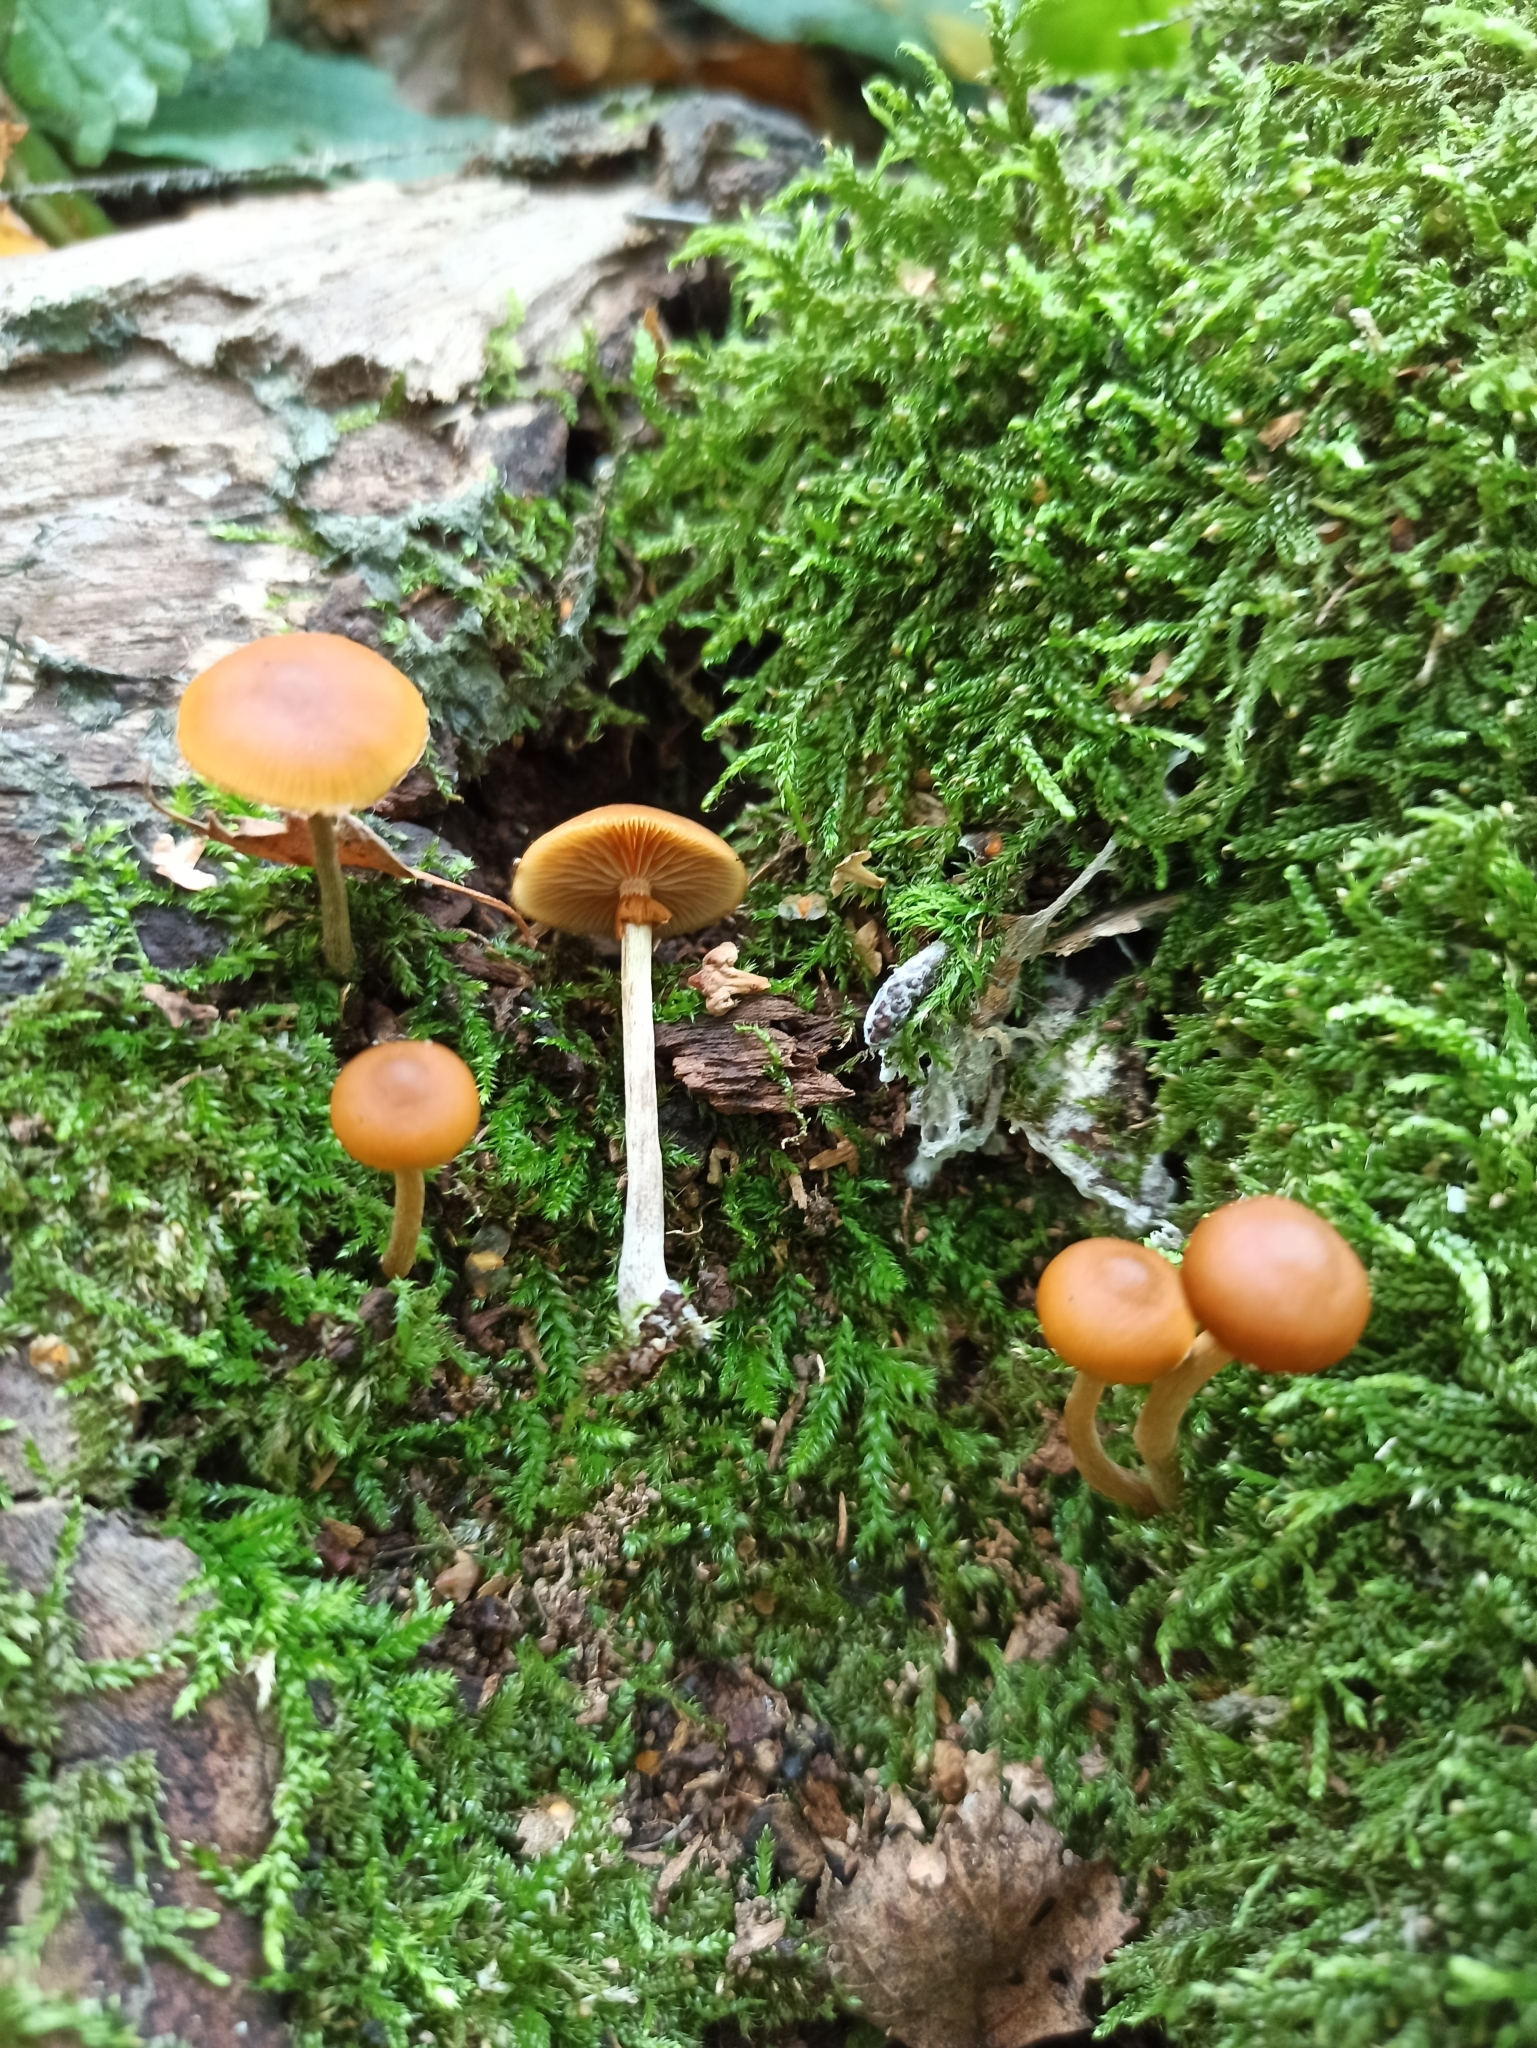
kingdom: Fungi
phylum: Basidiomycota
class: Agaricomycetes
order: Agaricales
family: Hymenogastraceae
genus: Galerina
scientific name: Galerina marginata
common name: Funeral bell
